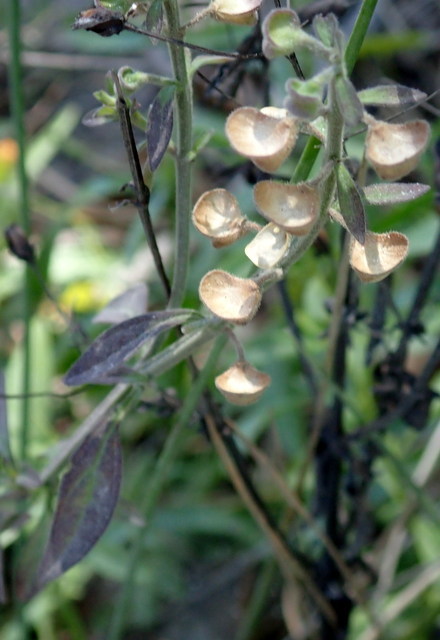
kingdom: Plantae
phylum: Tracheophyta
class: Magnoliopsida
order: Lamiales
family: Lamiaceae
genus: Scutellaria
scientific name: Scutellaria integrifolia
